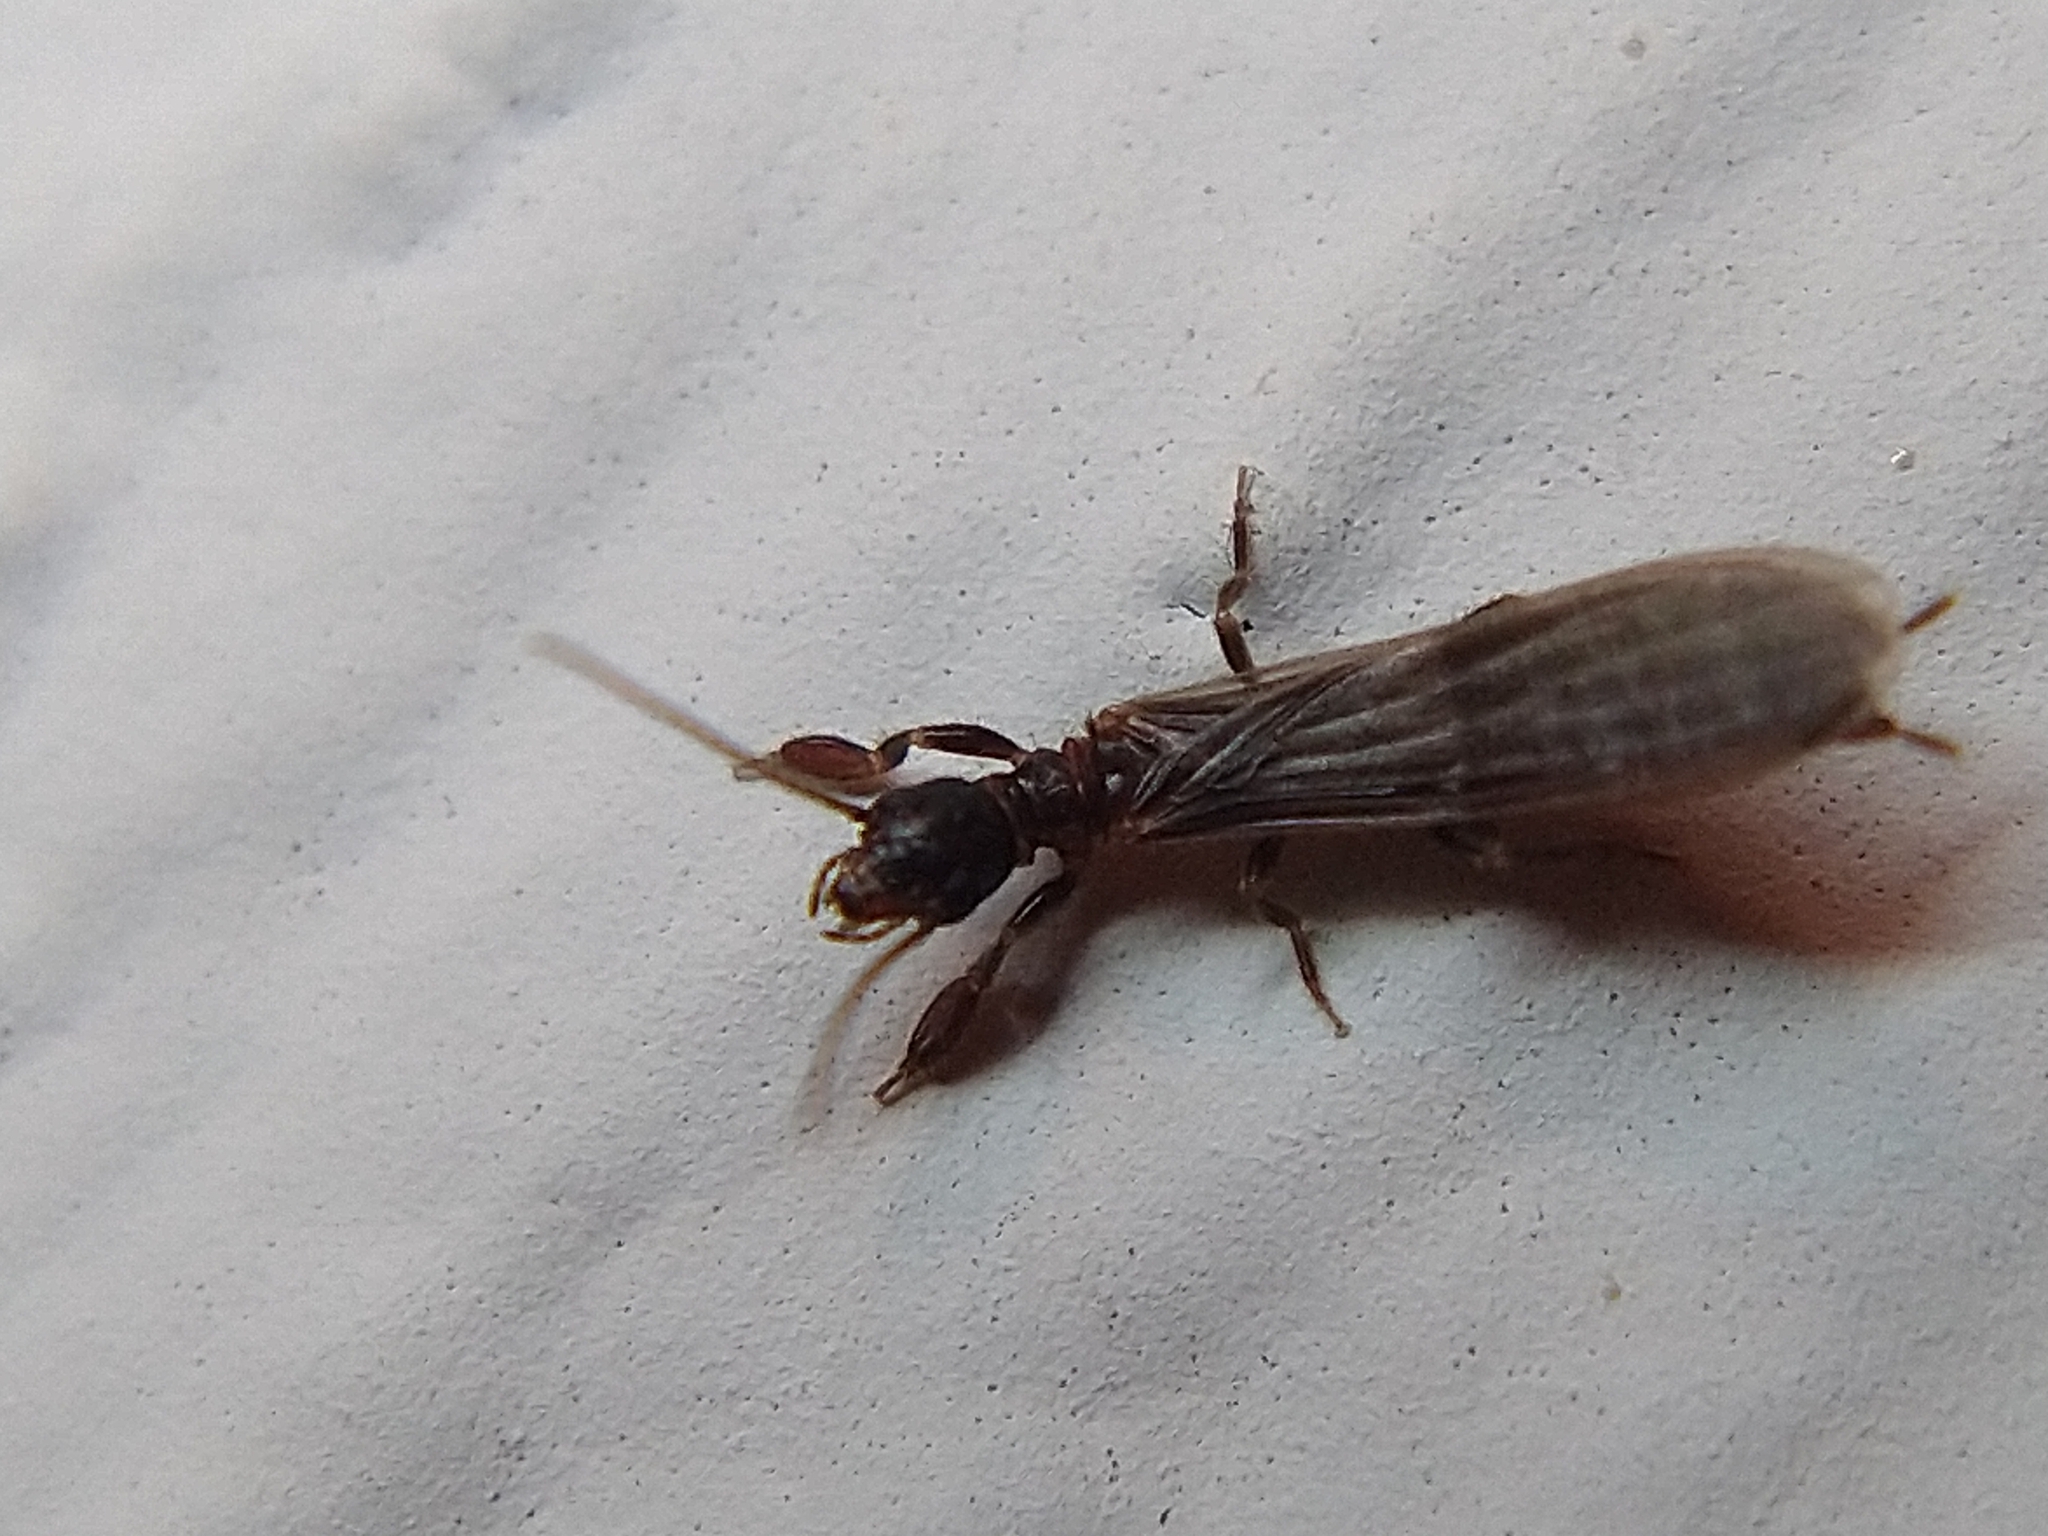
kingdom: Animalia
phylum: Arthropoda
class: Insecta
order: Embioptera
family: Oligotomidae
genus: Oligotoma
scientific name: Oligotoma nigra
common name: Black webspinner
